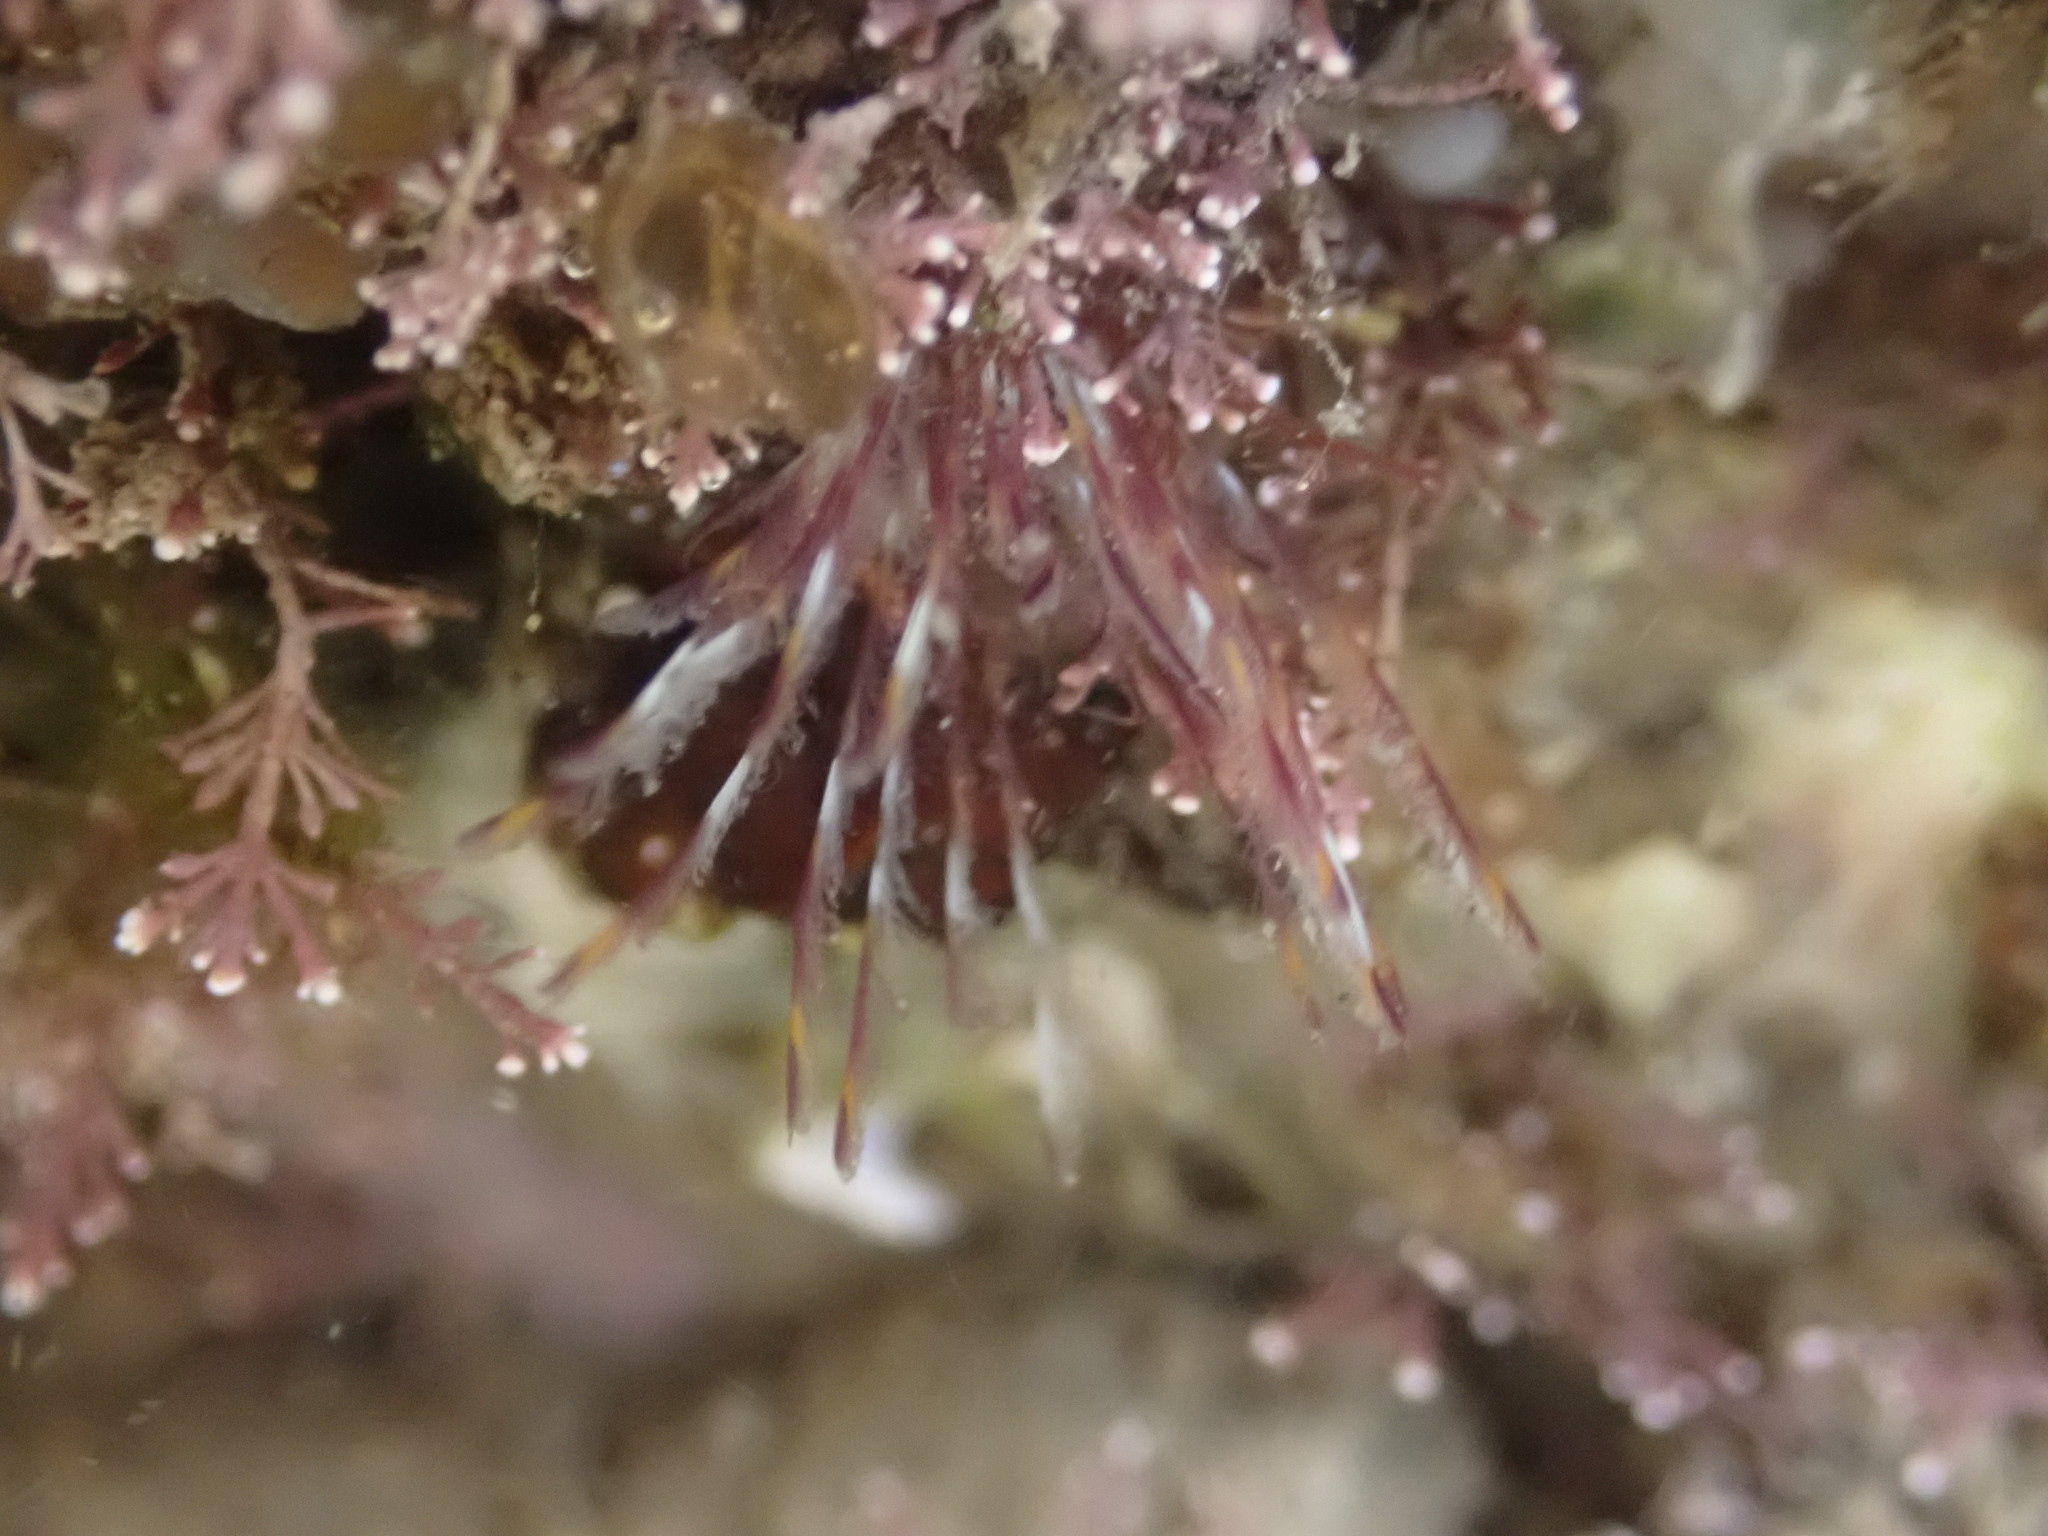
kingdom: Animalia
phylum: Annelida
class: Polychaeta
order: Sabellida
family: Sabellidae
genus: Sabella
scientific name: Sabella spallanzanii
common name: Feather duster worm
